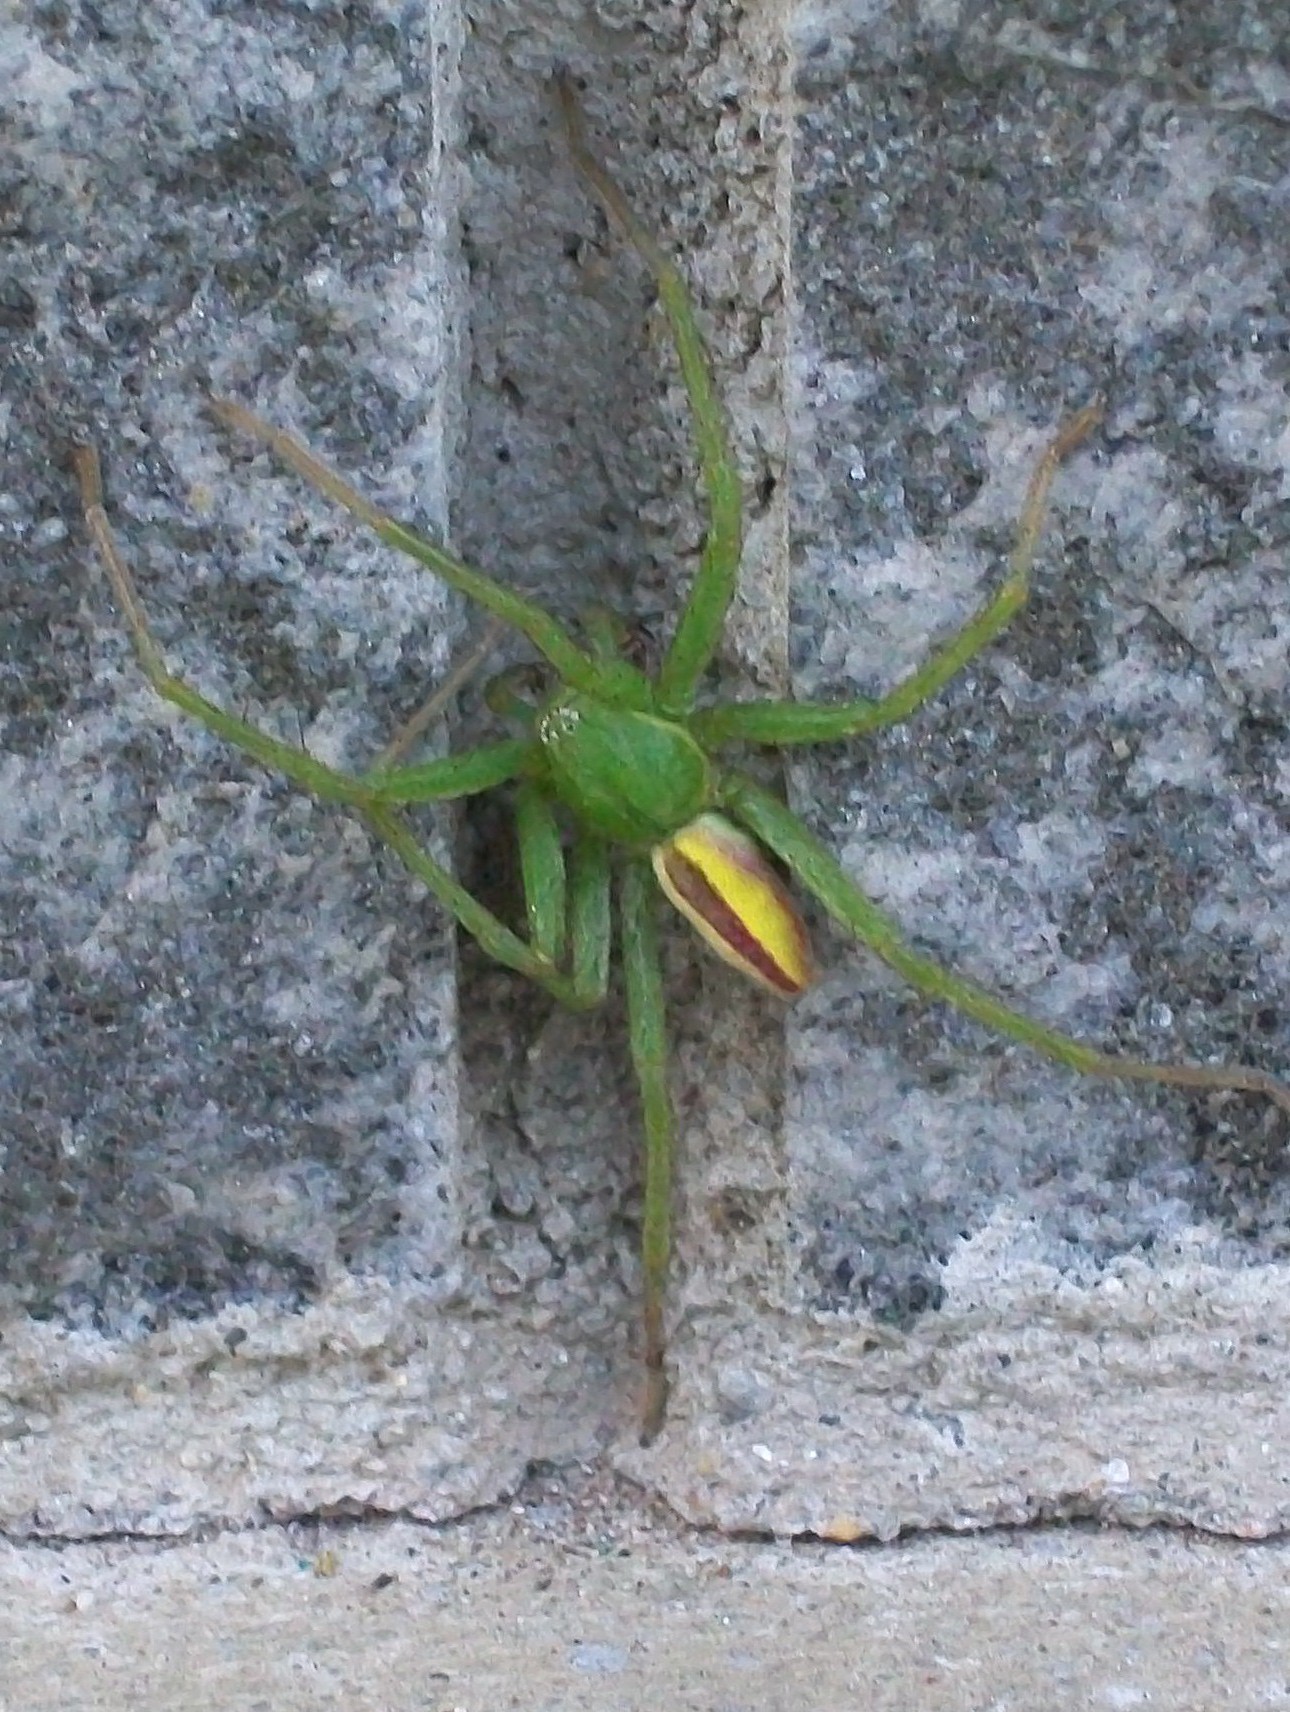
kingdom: Animalia
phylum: Arthropoda
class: Arachnida
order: Araneae
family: Sparassidae
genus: Micrommata
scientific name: Micrommata virescens
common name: Green spider
